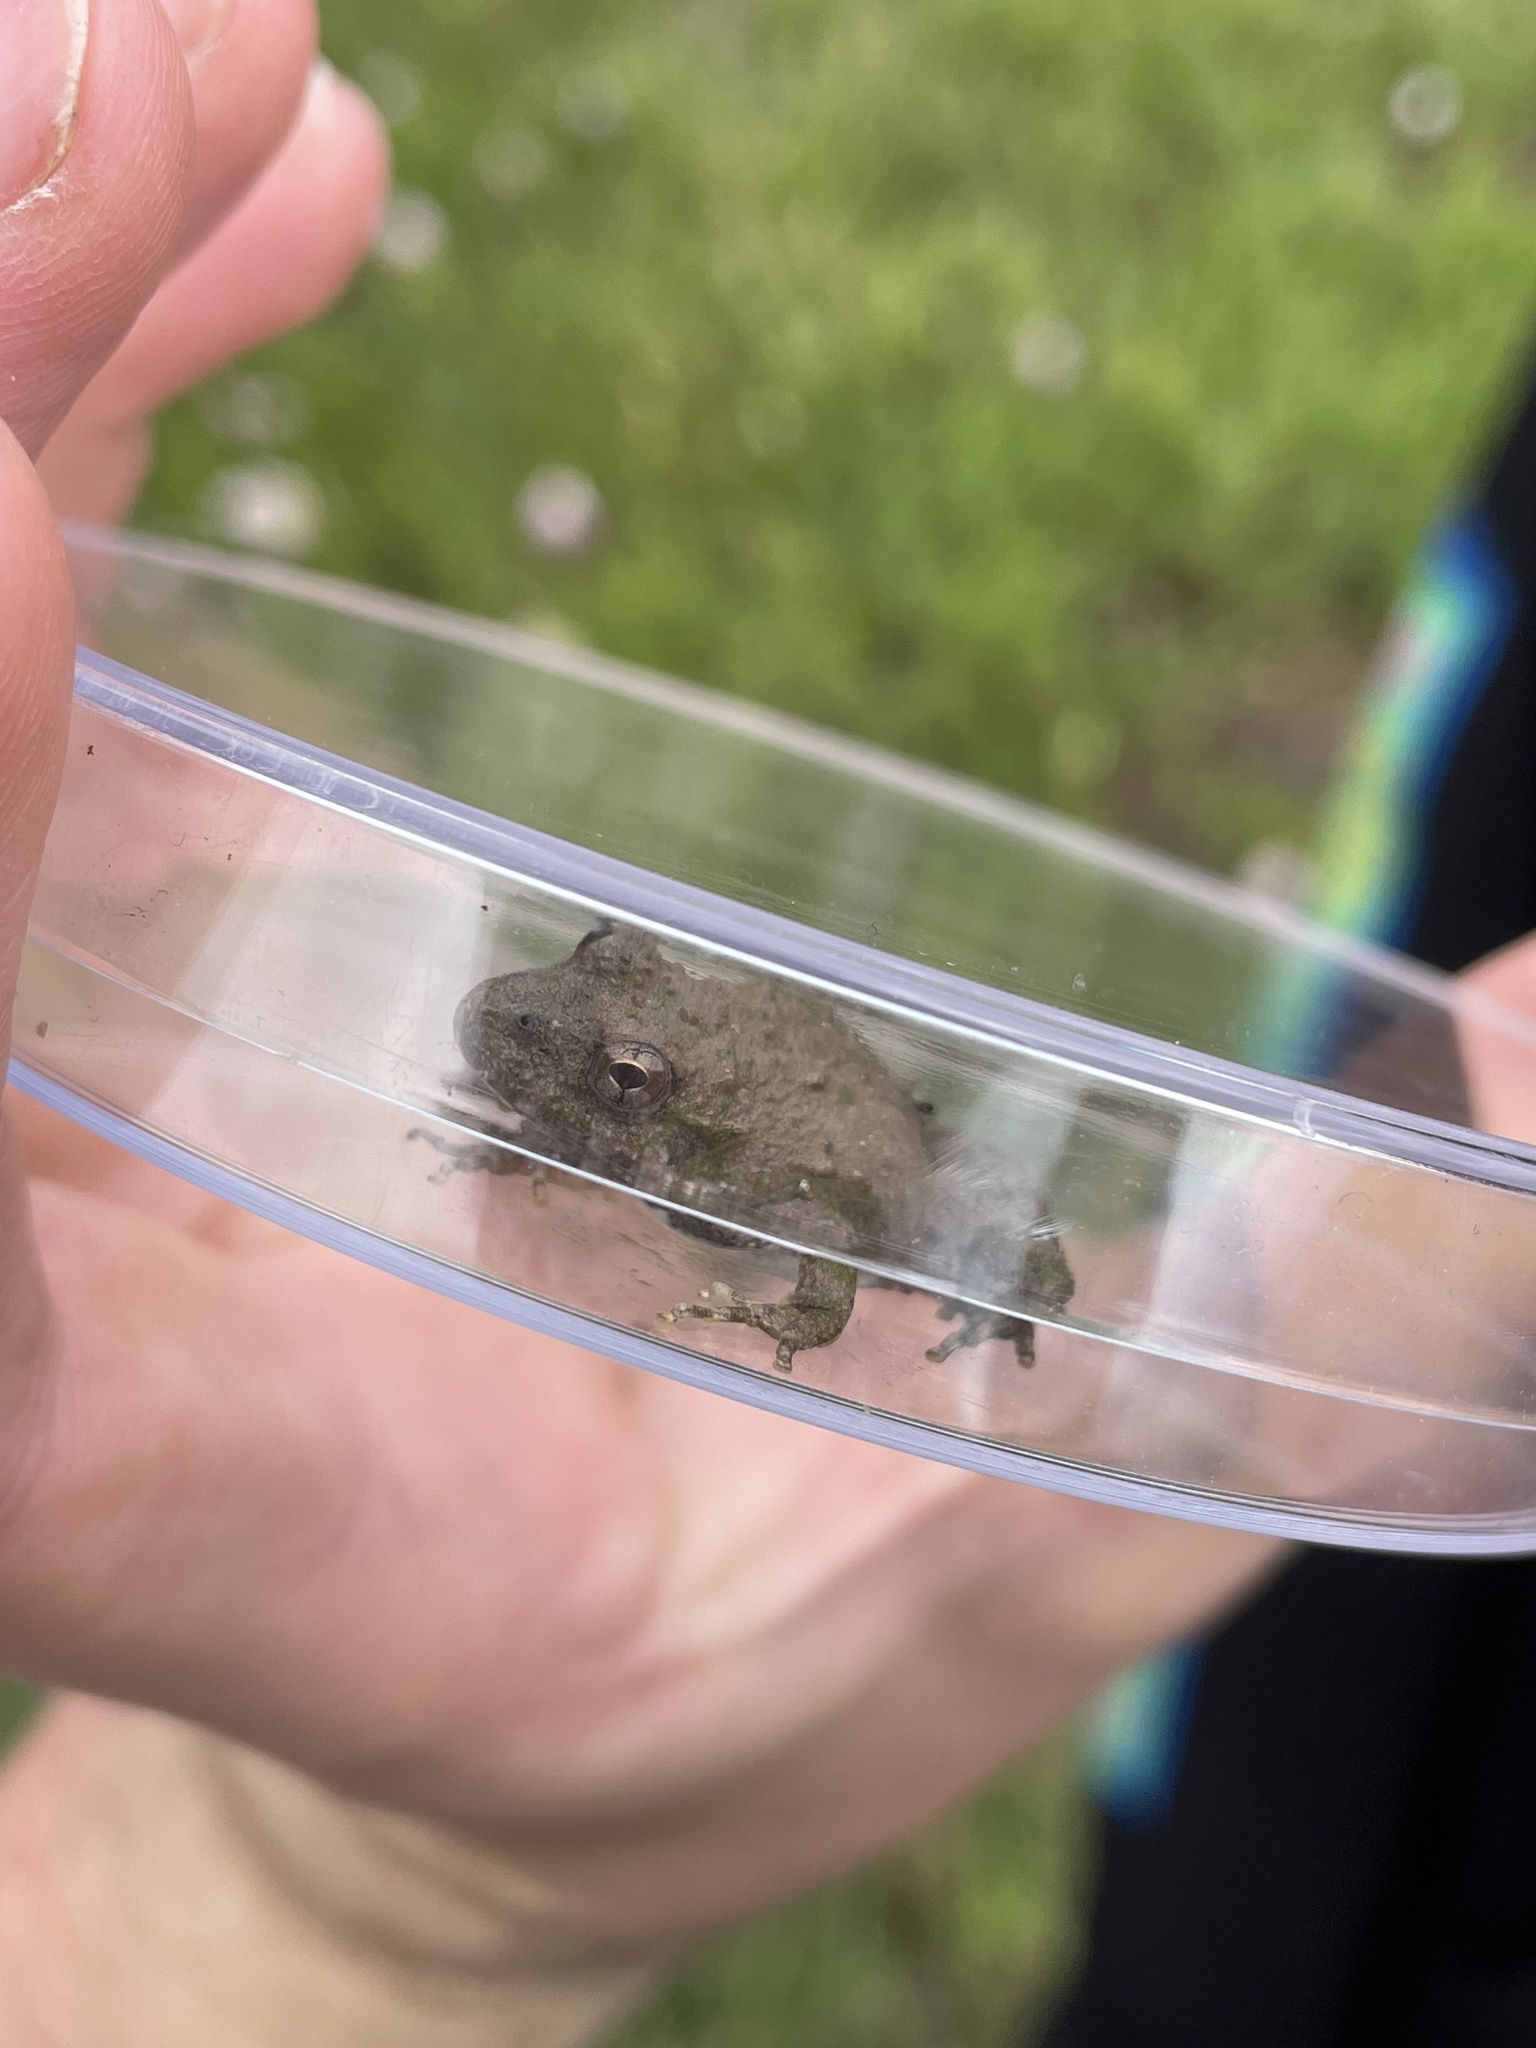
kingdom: Animalia
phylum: Chordata
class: Amphibia
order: Anura
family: Hylidae
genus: Acris
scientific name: Acris blanchardi
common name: Blanchard's cricket frog
